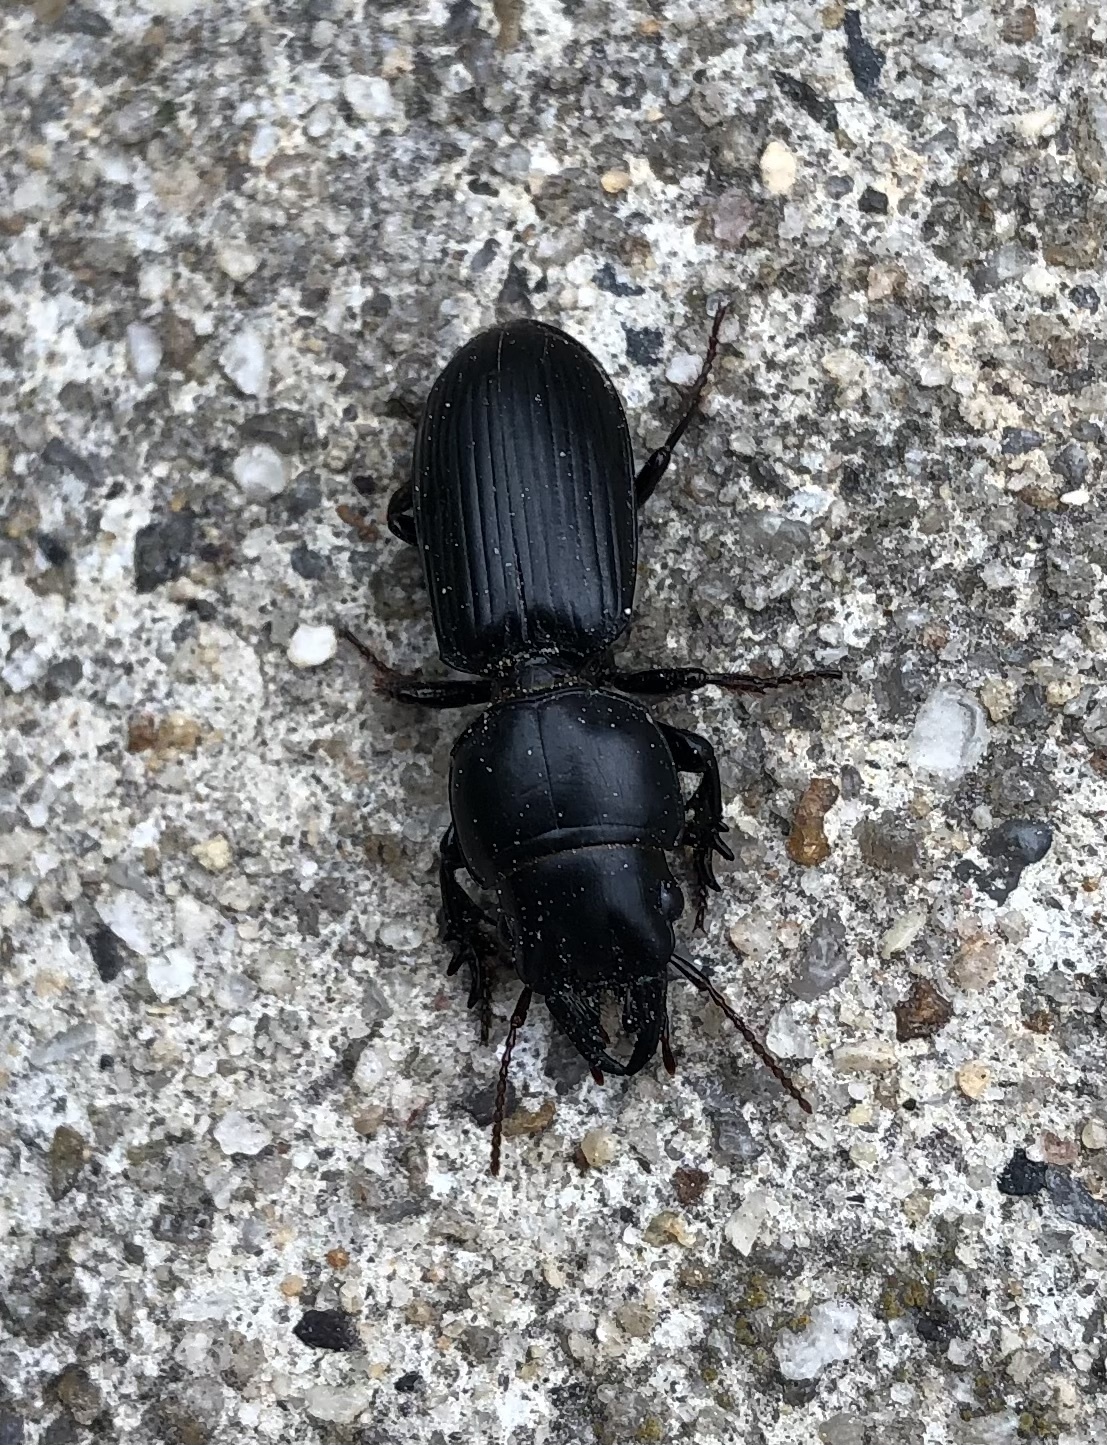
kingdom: Animalia
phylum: Arthropoda
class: Insecta
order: Coleoptera
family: Carabidae
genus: Scarites
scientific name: Scarites subterraneus
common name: Big-headed ground beetle
